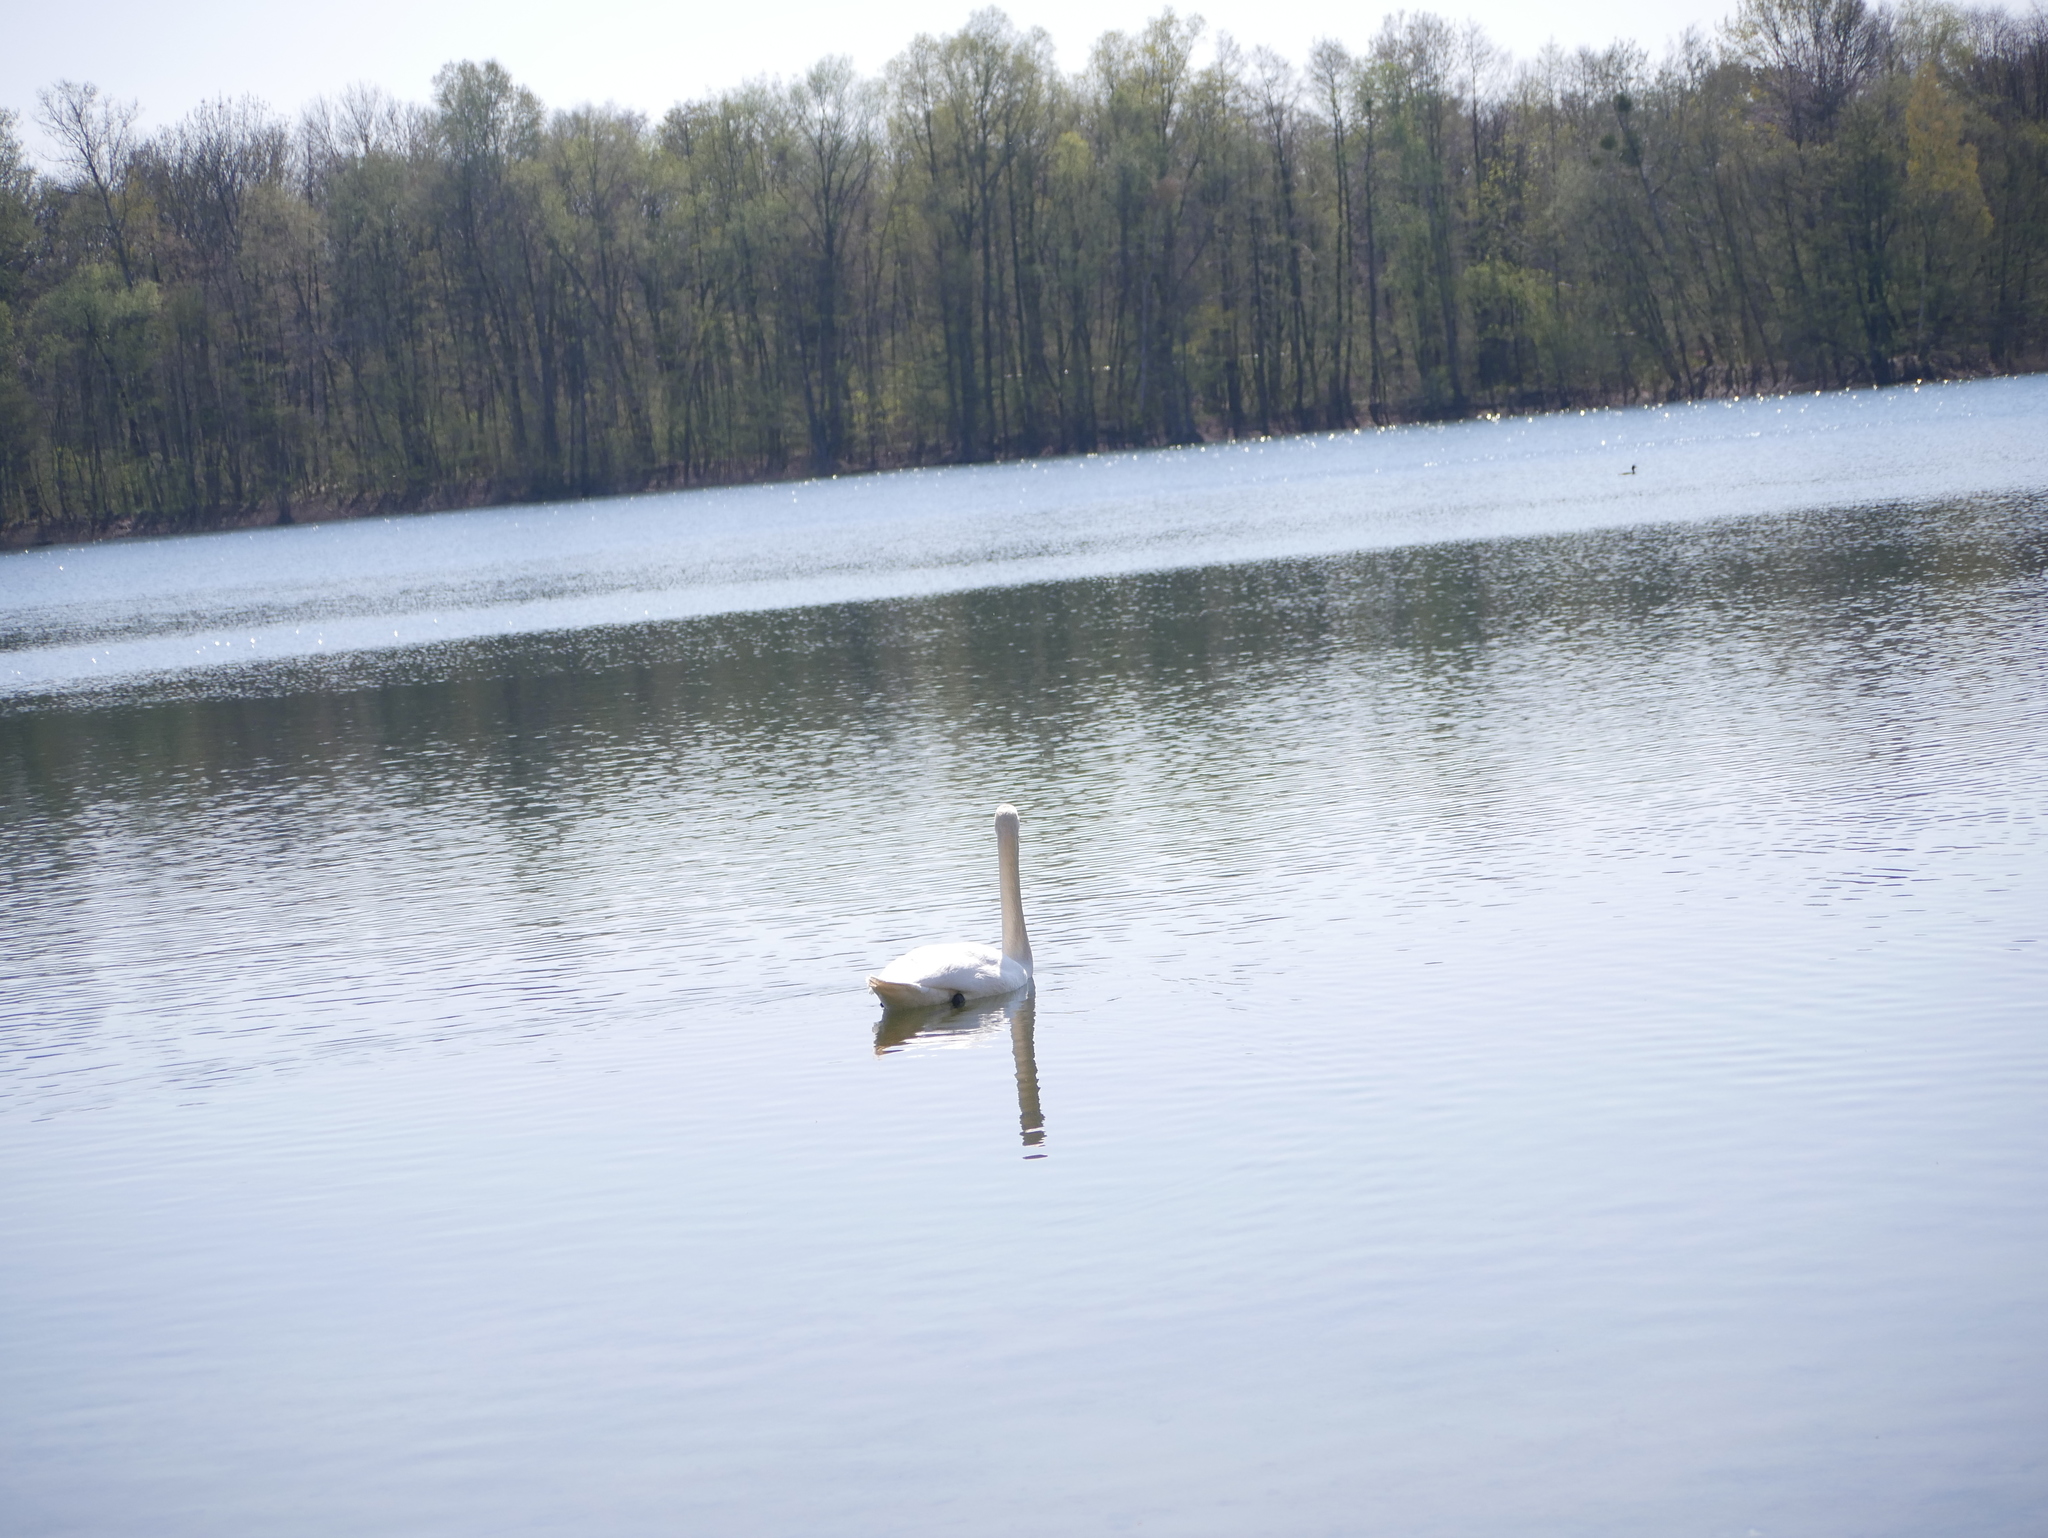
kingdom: Animalia
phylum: Chordata
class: Aves
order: Anseriformes
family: Anatidae
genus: Cygnus
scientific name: Cygnus olor
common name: Mute swan
